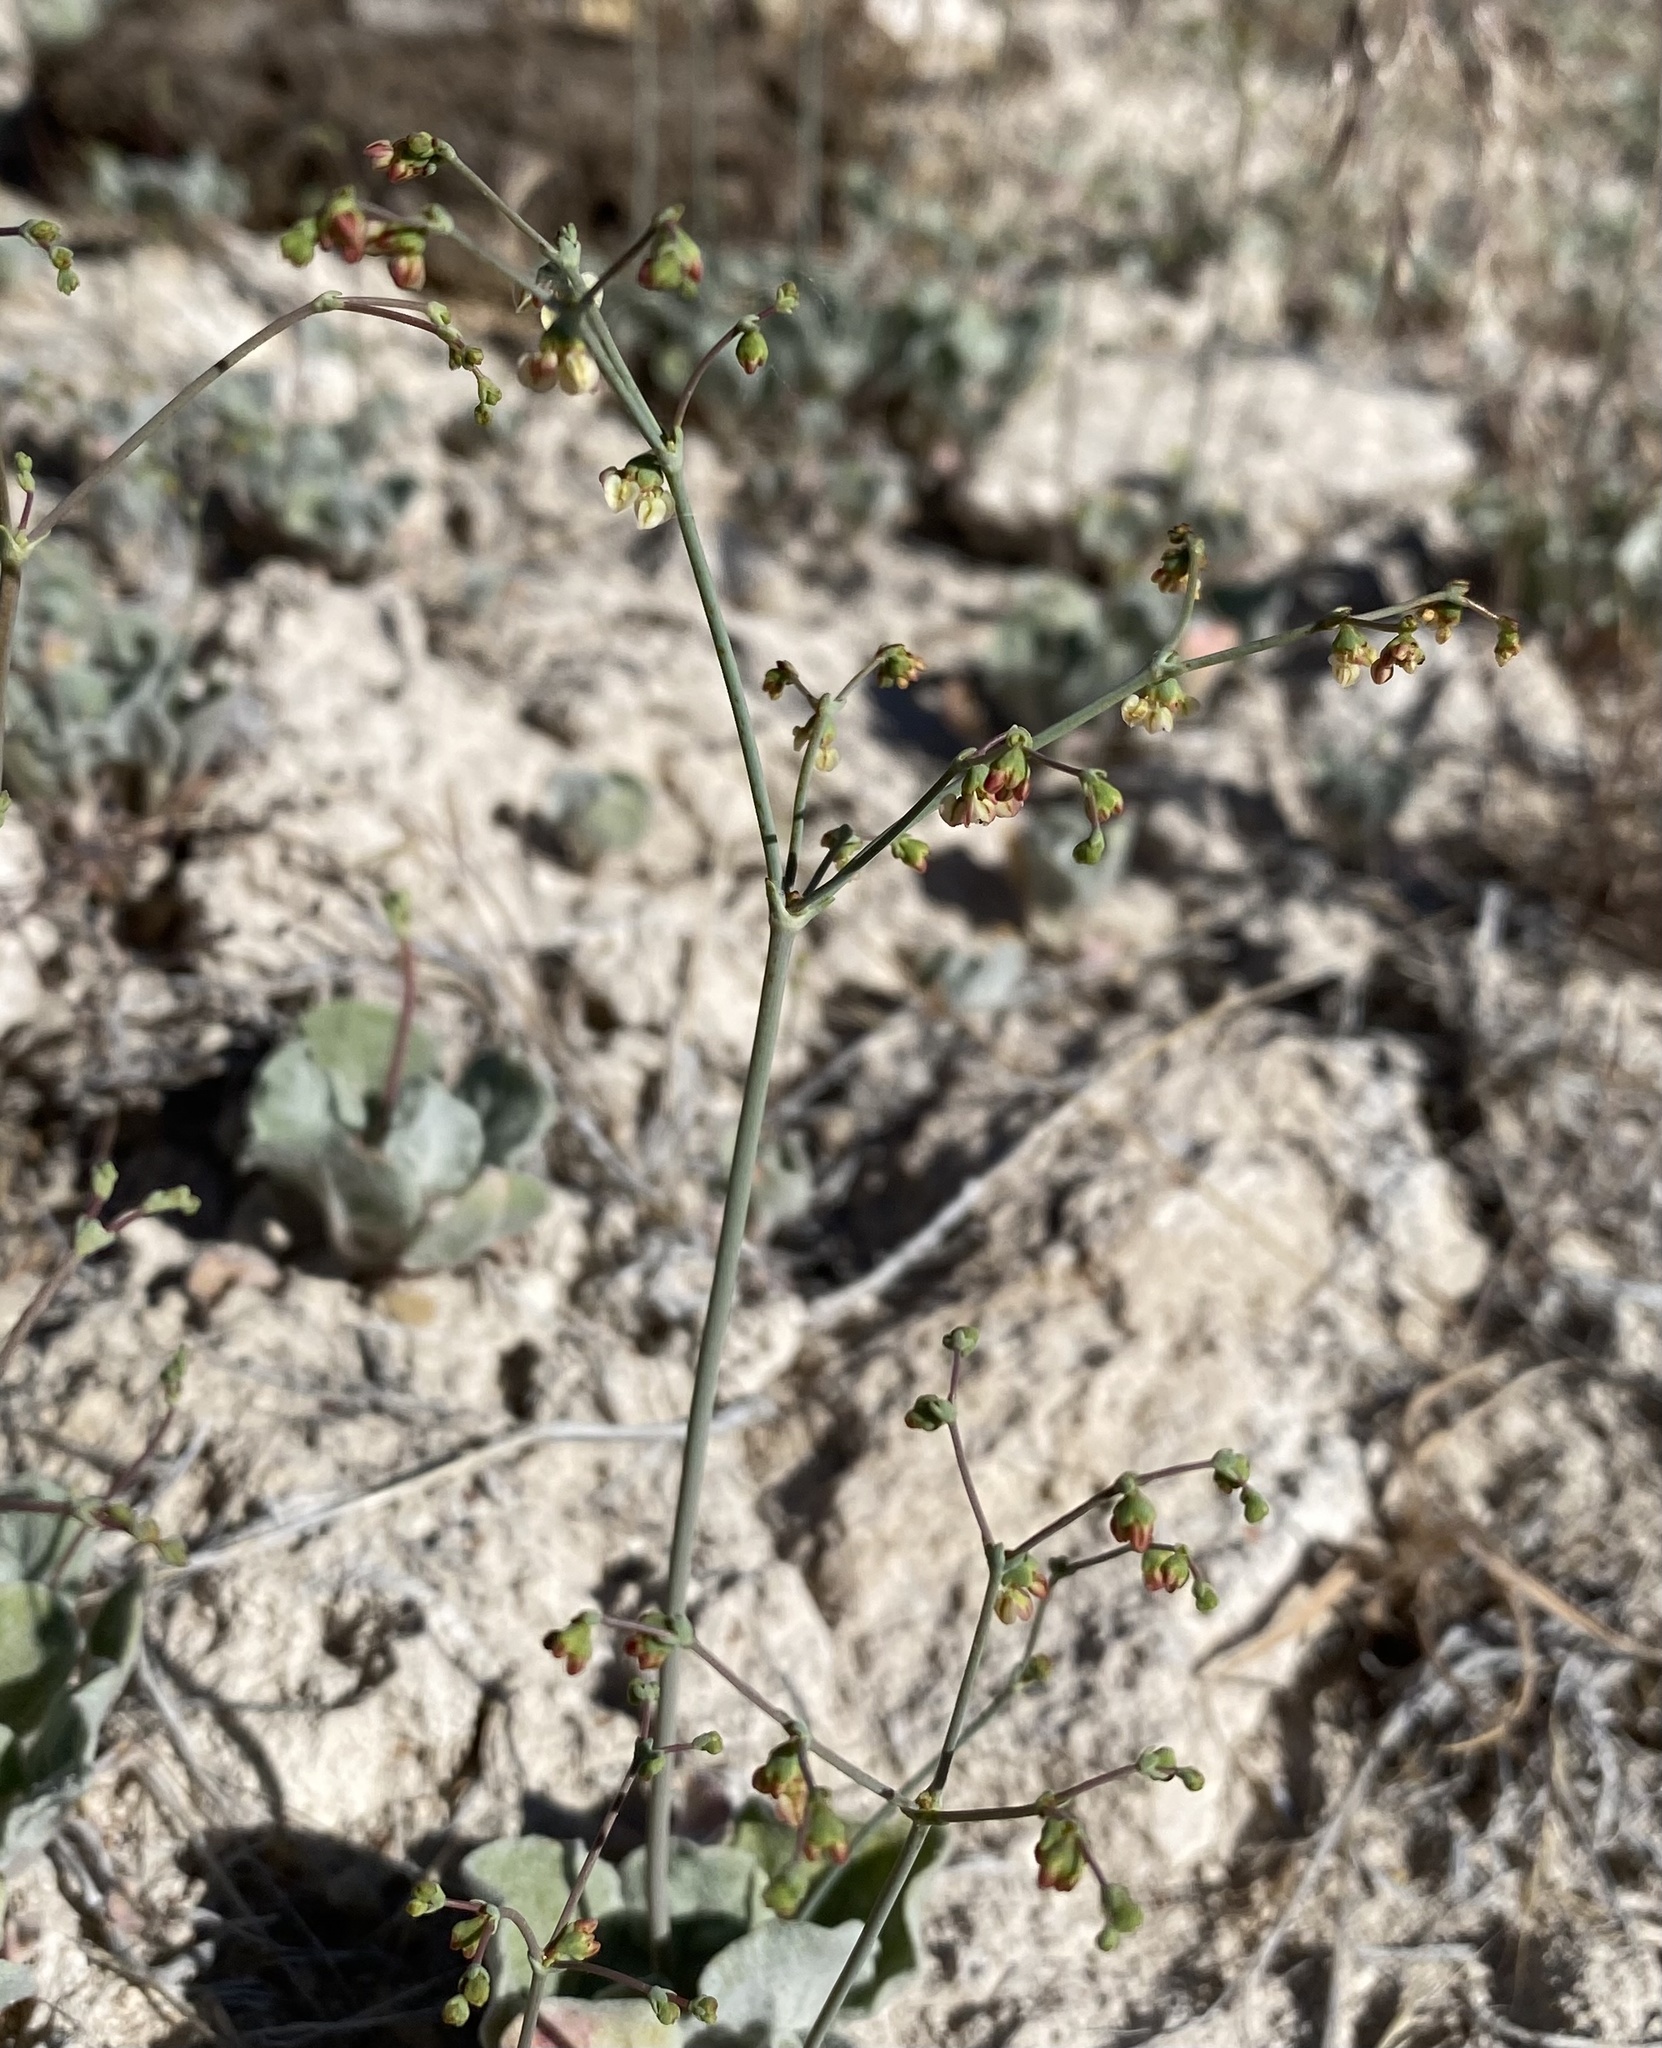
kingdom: Plantae
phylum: Tracheophyta
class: Magnoliopsida
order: Caryophyllales
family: Polygonaceae
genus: Eriogonum
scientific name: Eriogonum hookeri
